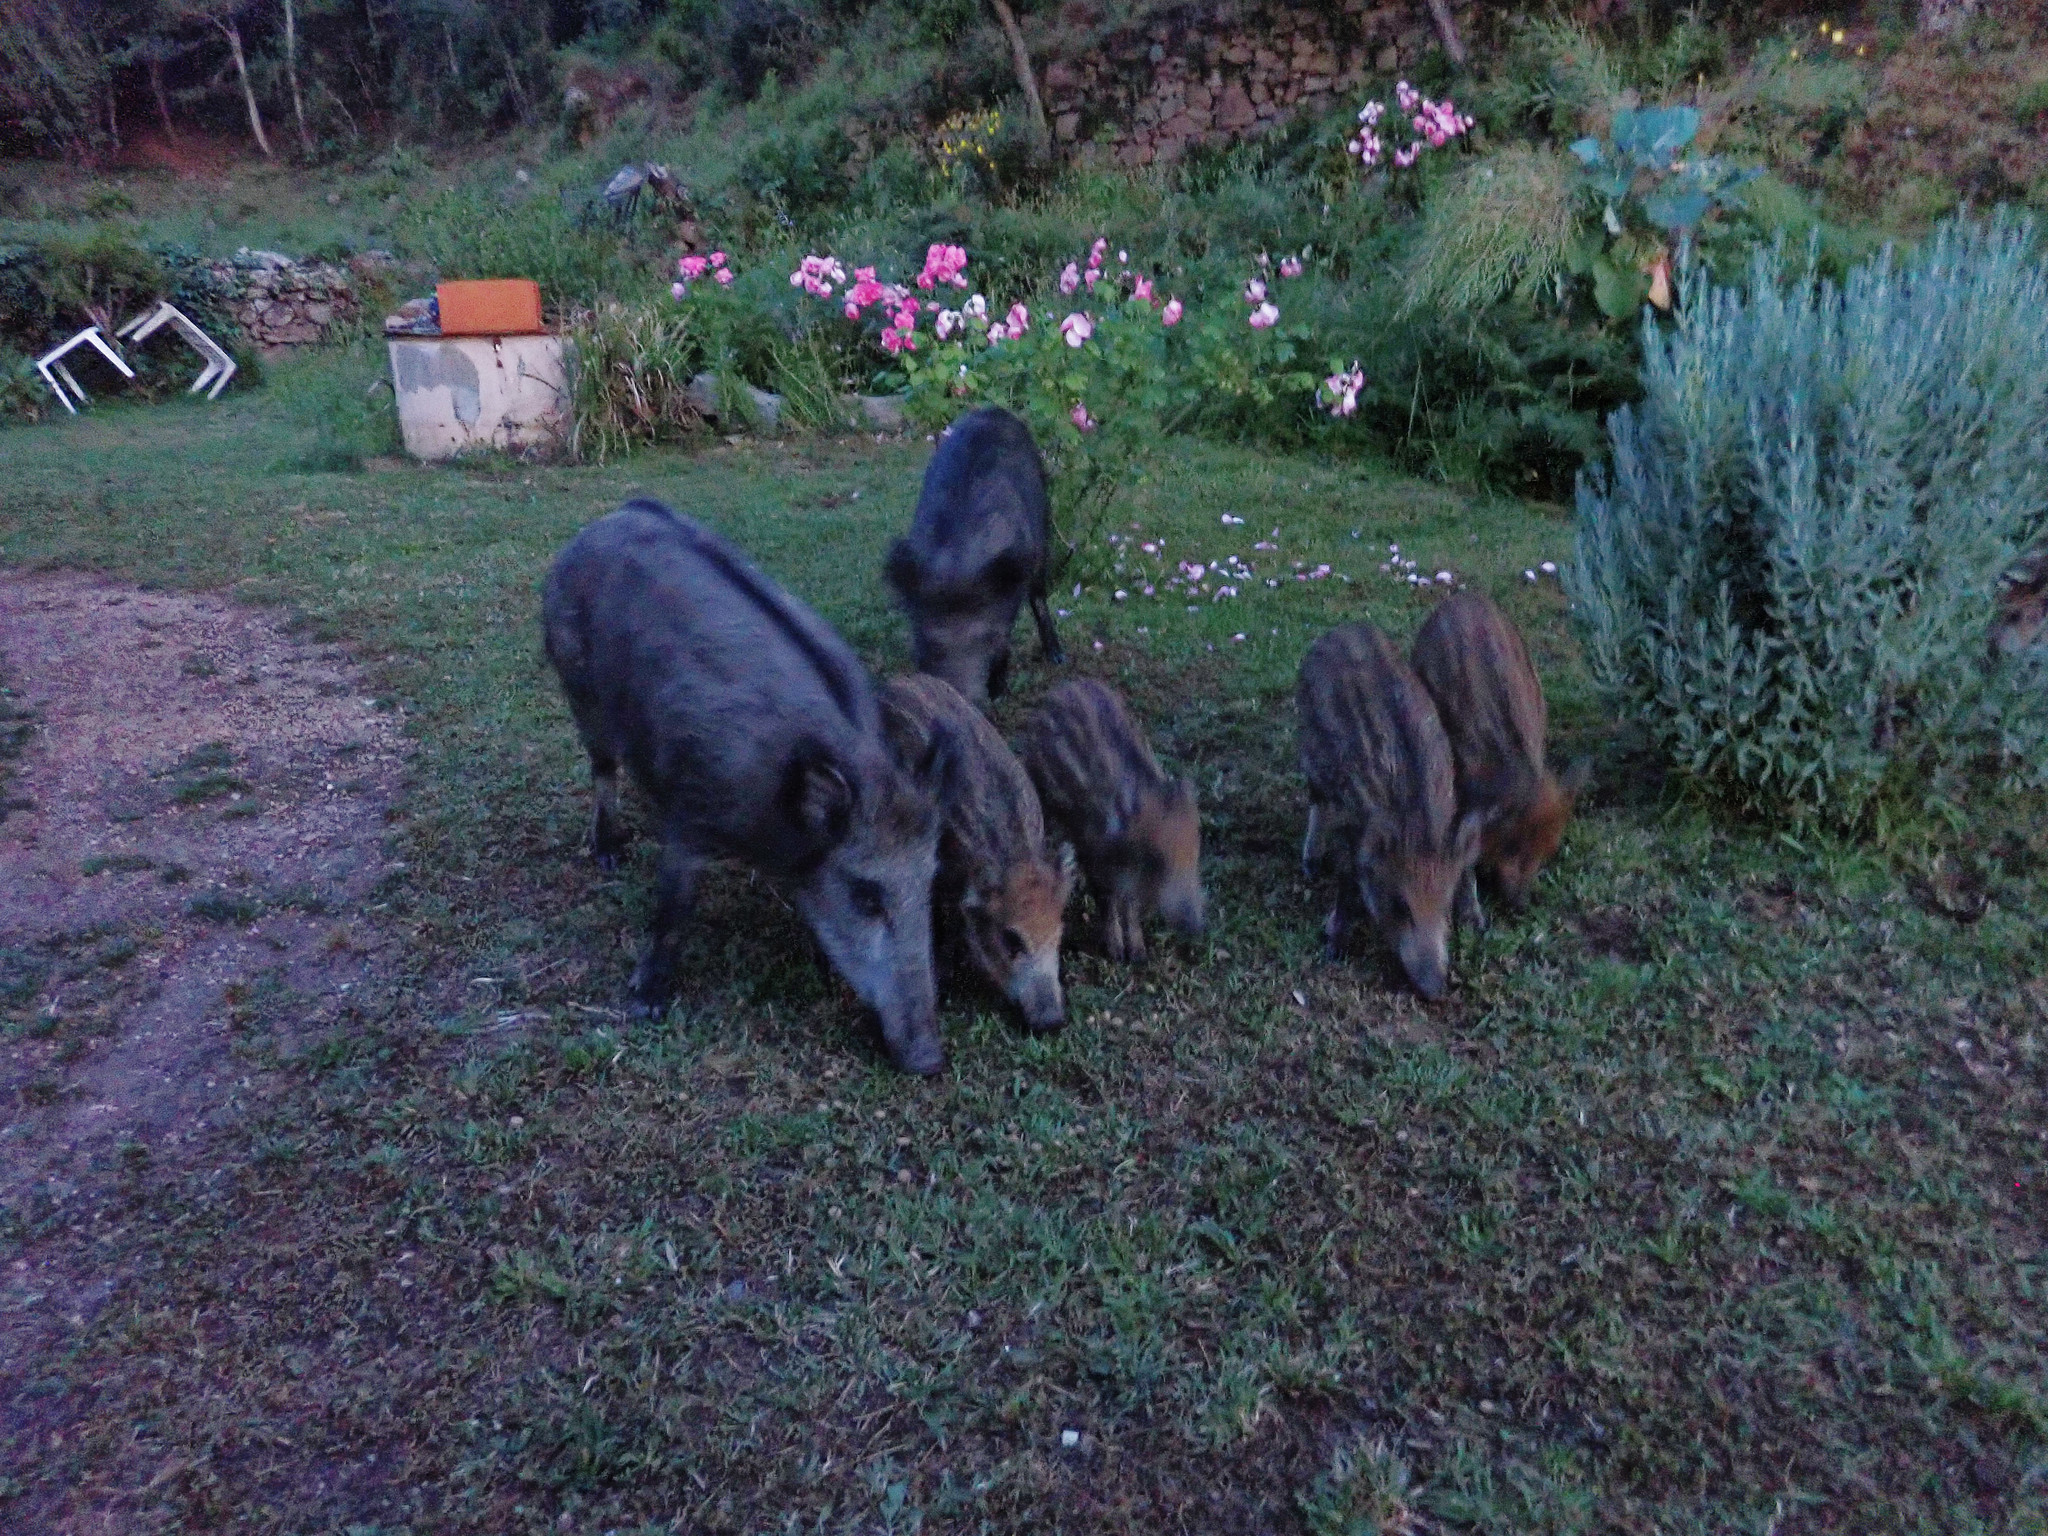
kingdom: Animalia
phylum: Chordata
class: Mammalia
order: Artiodactyla
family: Suidae
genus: Sus
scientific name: Sus scrofa
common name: Wild boar
